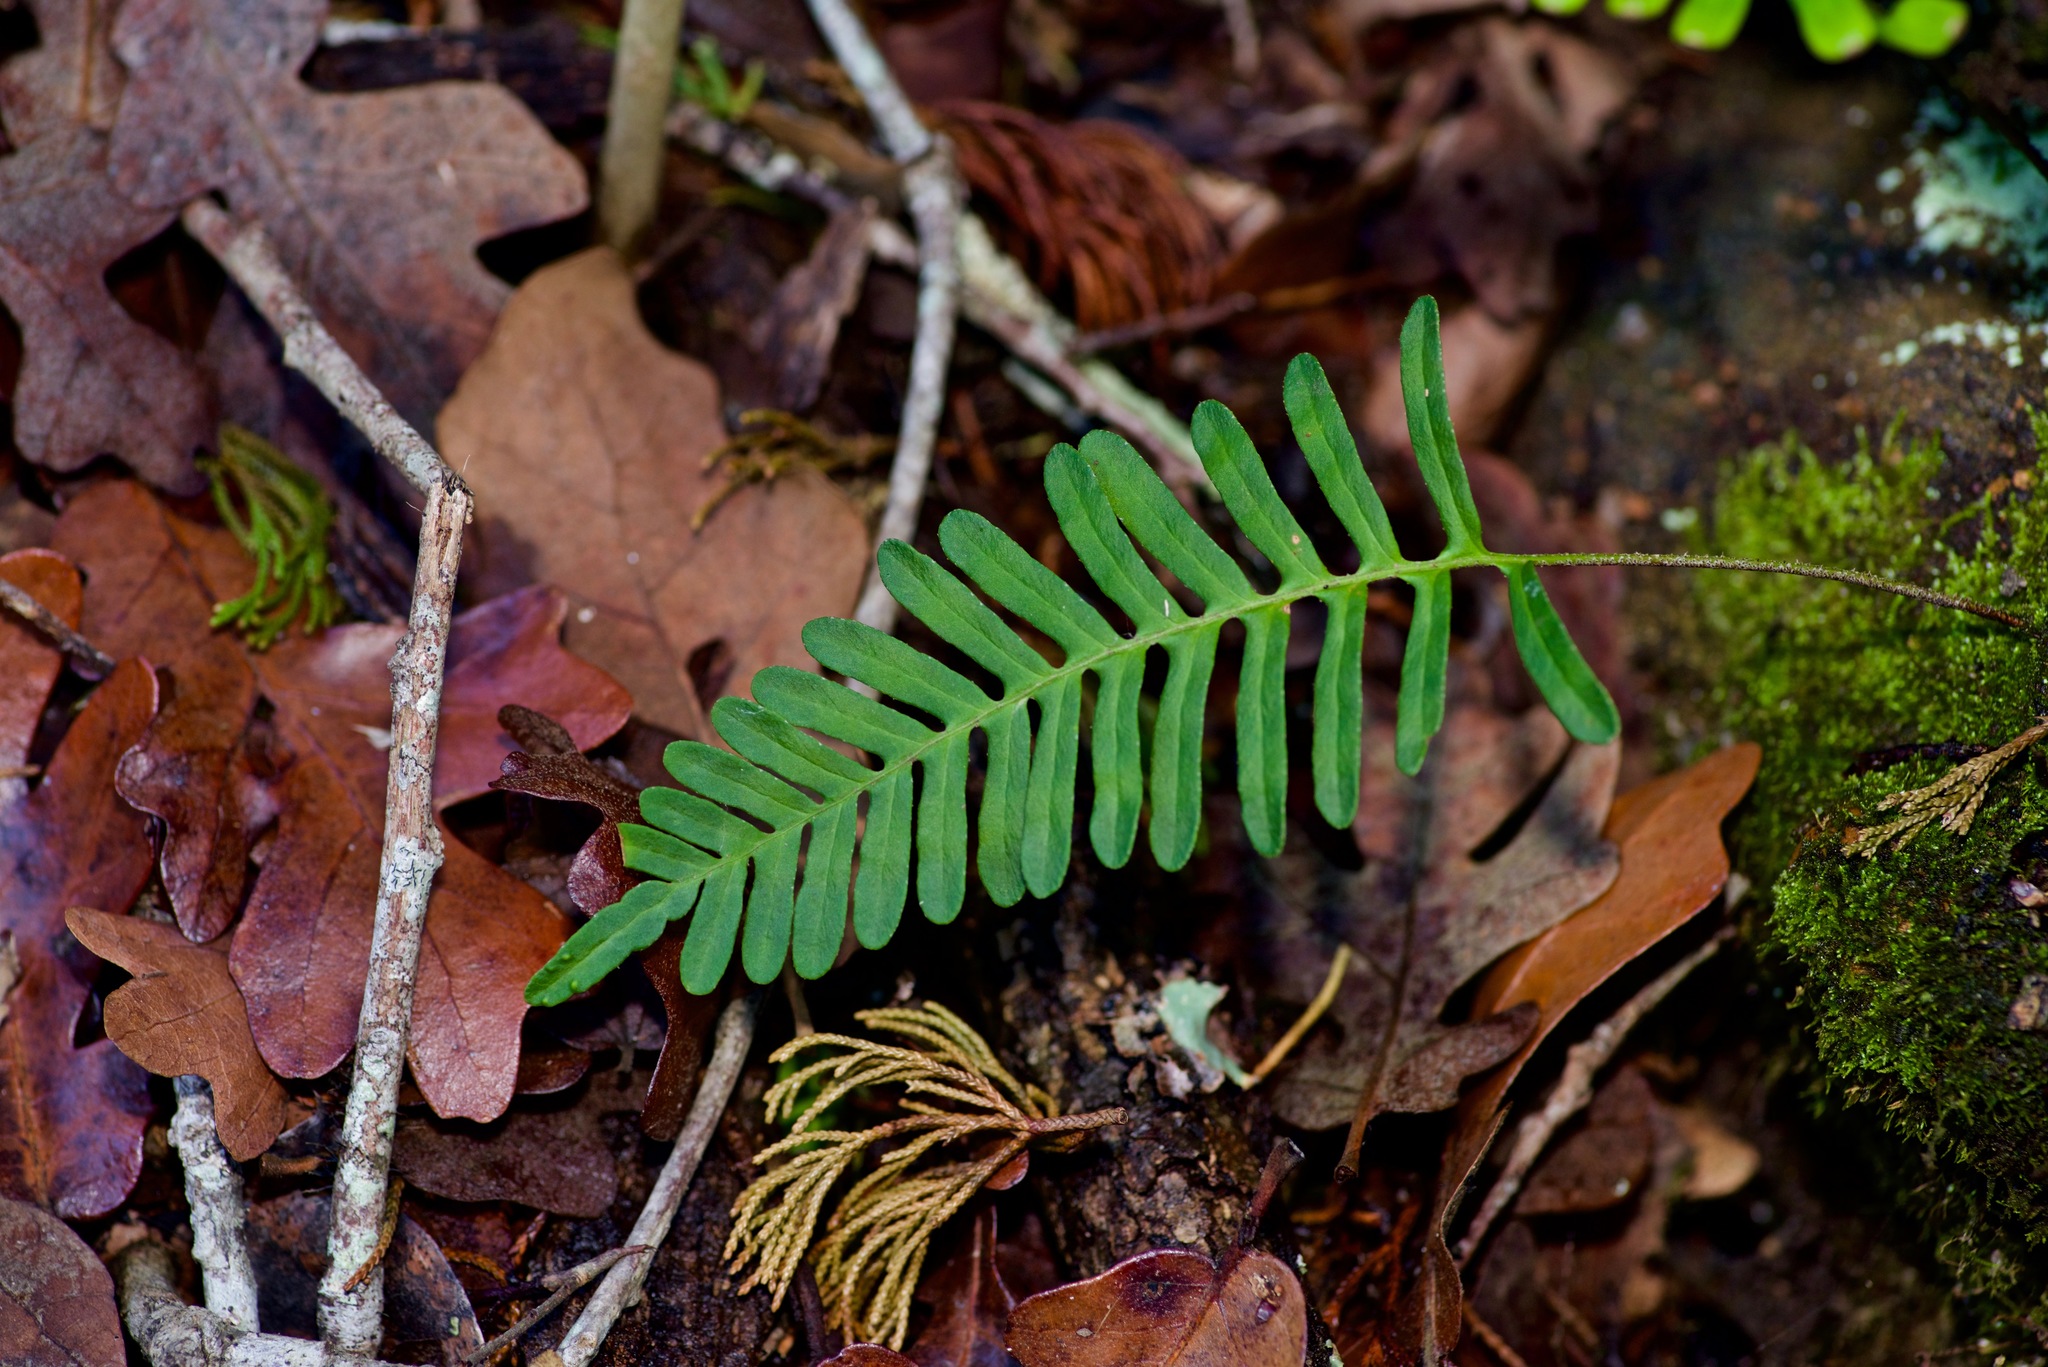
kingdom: Plantae
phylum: Tracheophyta
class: Polypodiopsida
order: Polypodiales
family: Polypodiaceae
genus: Pleopeltis
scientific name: Pleopeltis michauxiana
